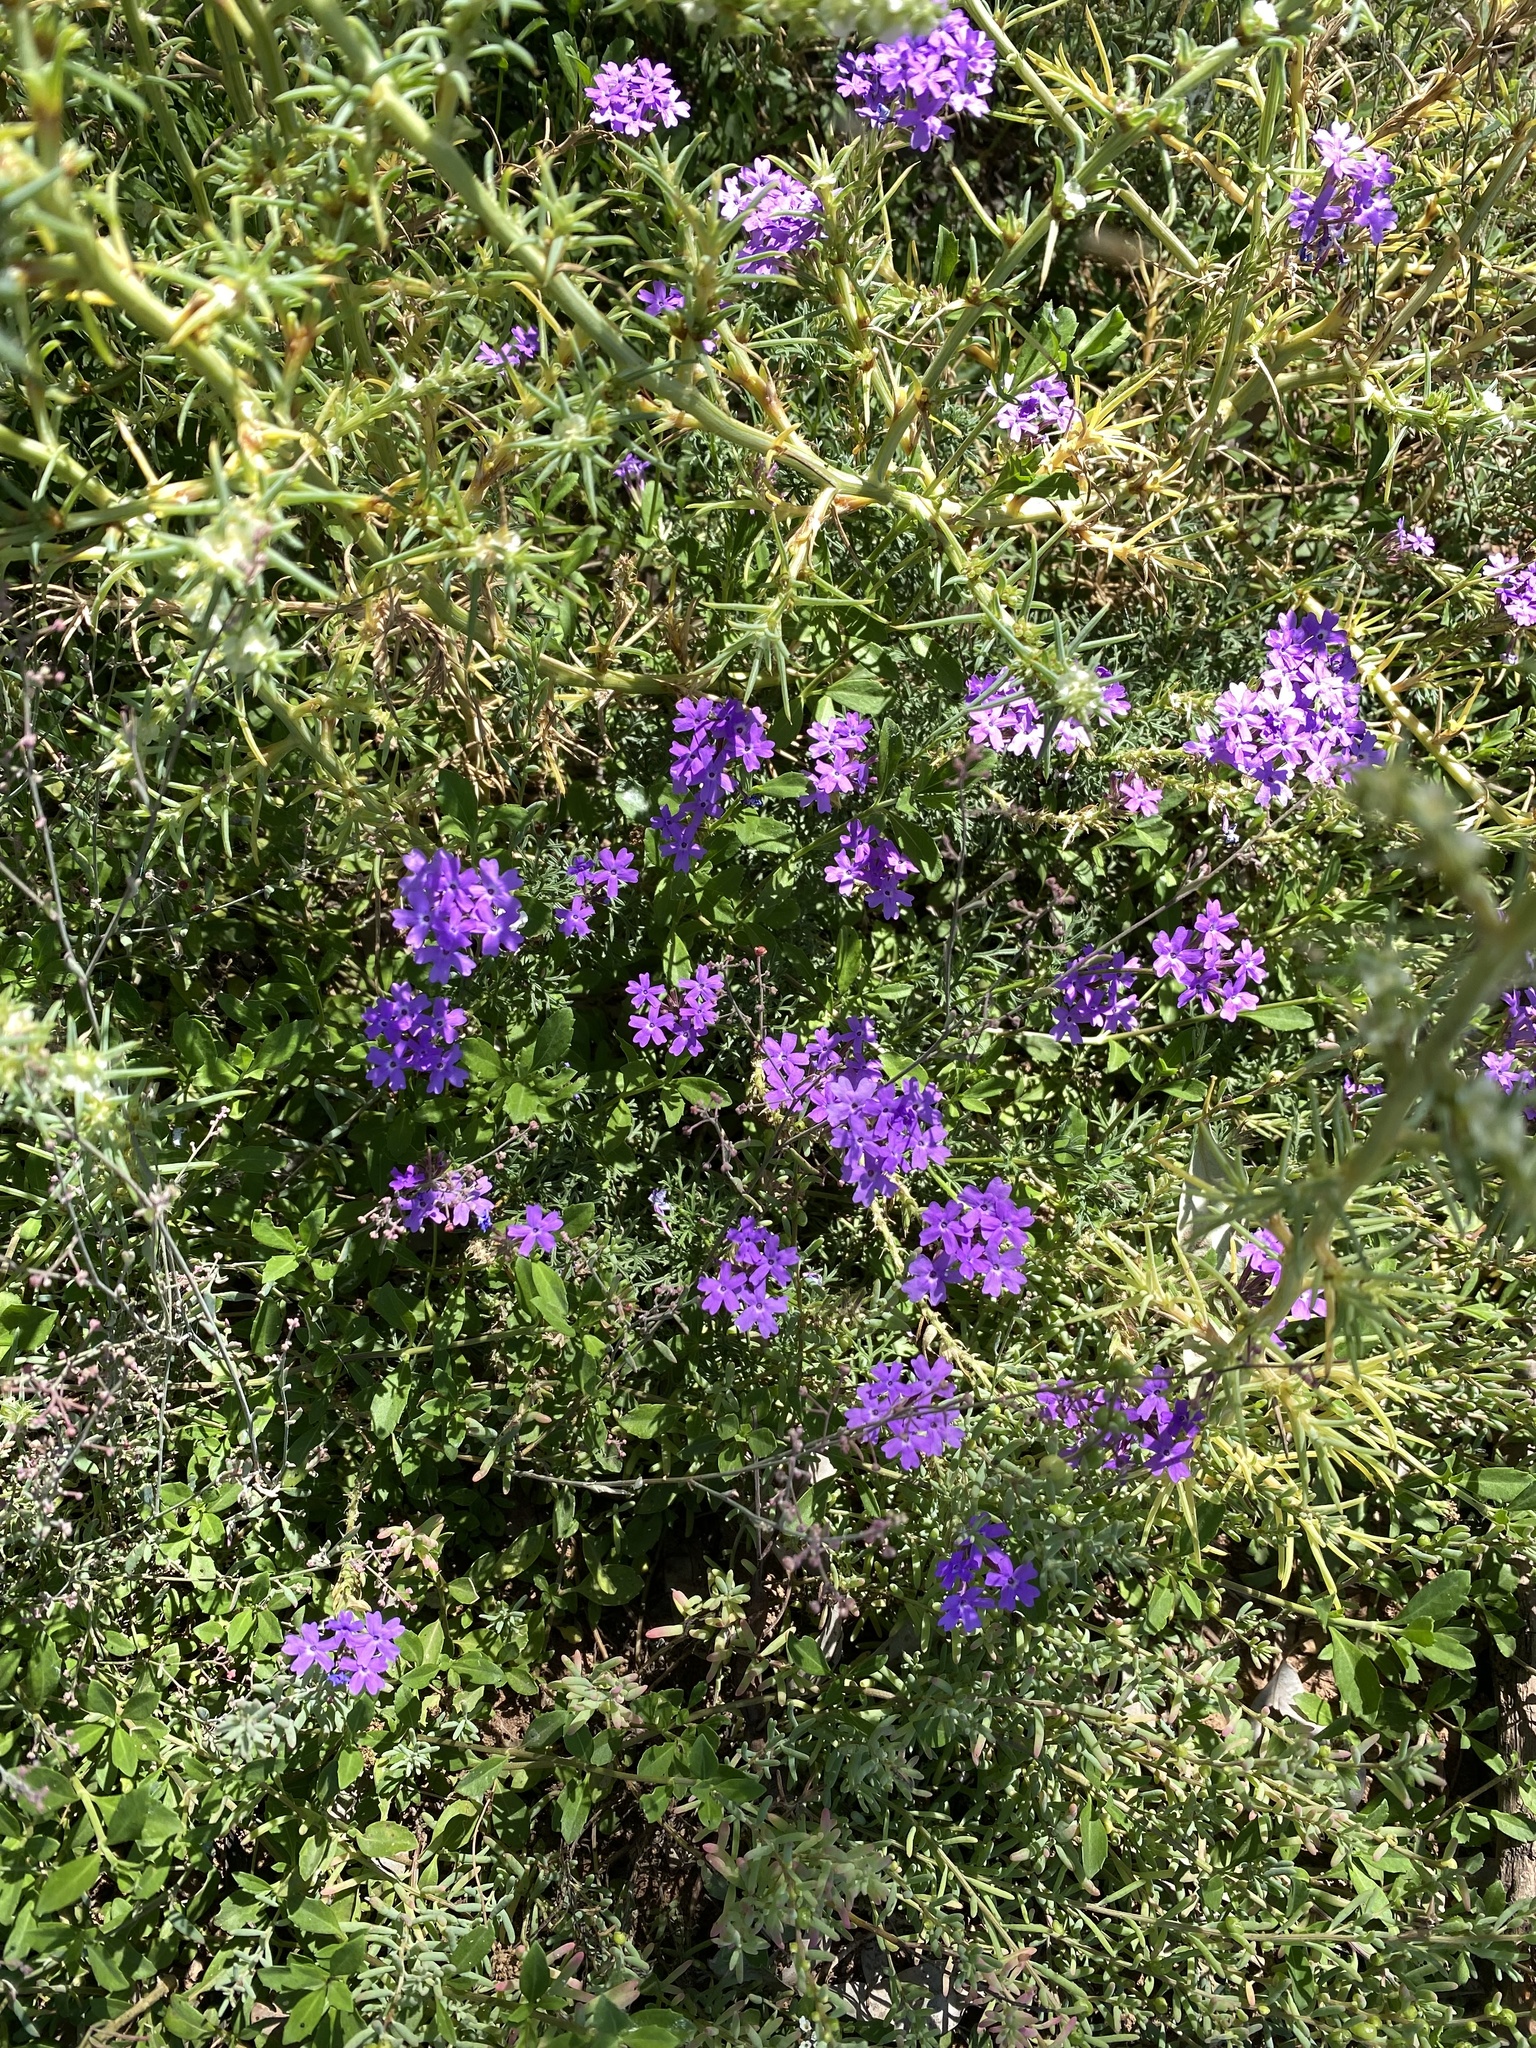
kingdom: Plantae
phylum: Tracheophyta
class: Magnoliopsida
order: Lamiales
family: Verbenaceae
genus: Verbena
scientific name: Verbena aristigera
